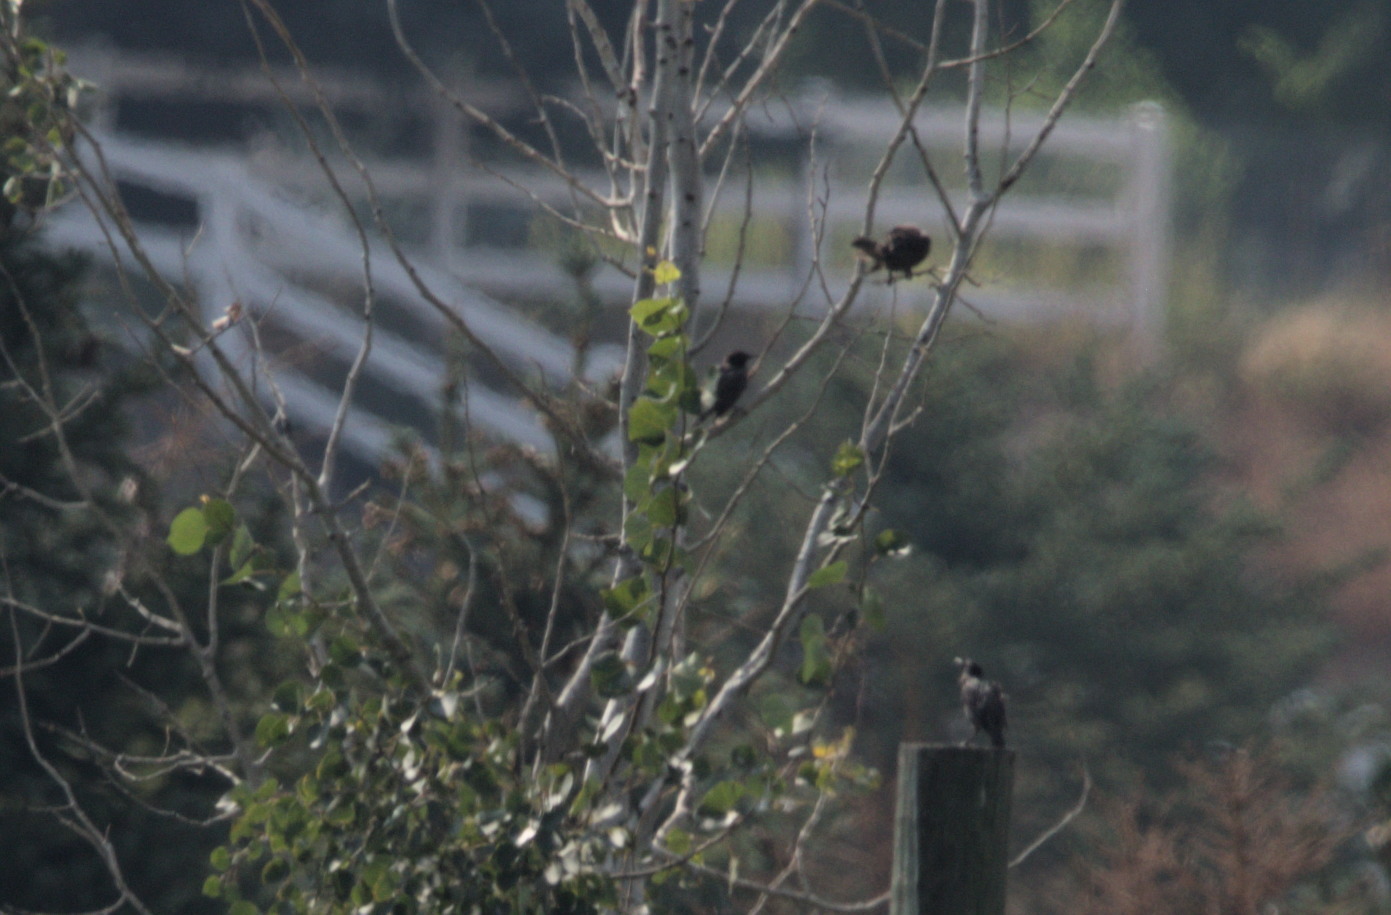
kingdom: Animalia
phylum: Chordata
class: Aves
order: Passeriformes
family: Sturnidae
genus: Sturnus
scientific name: Sturnus vulgaris
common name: Common starling
